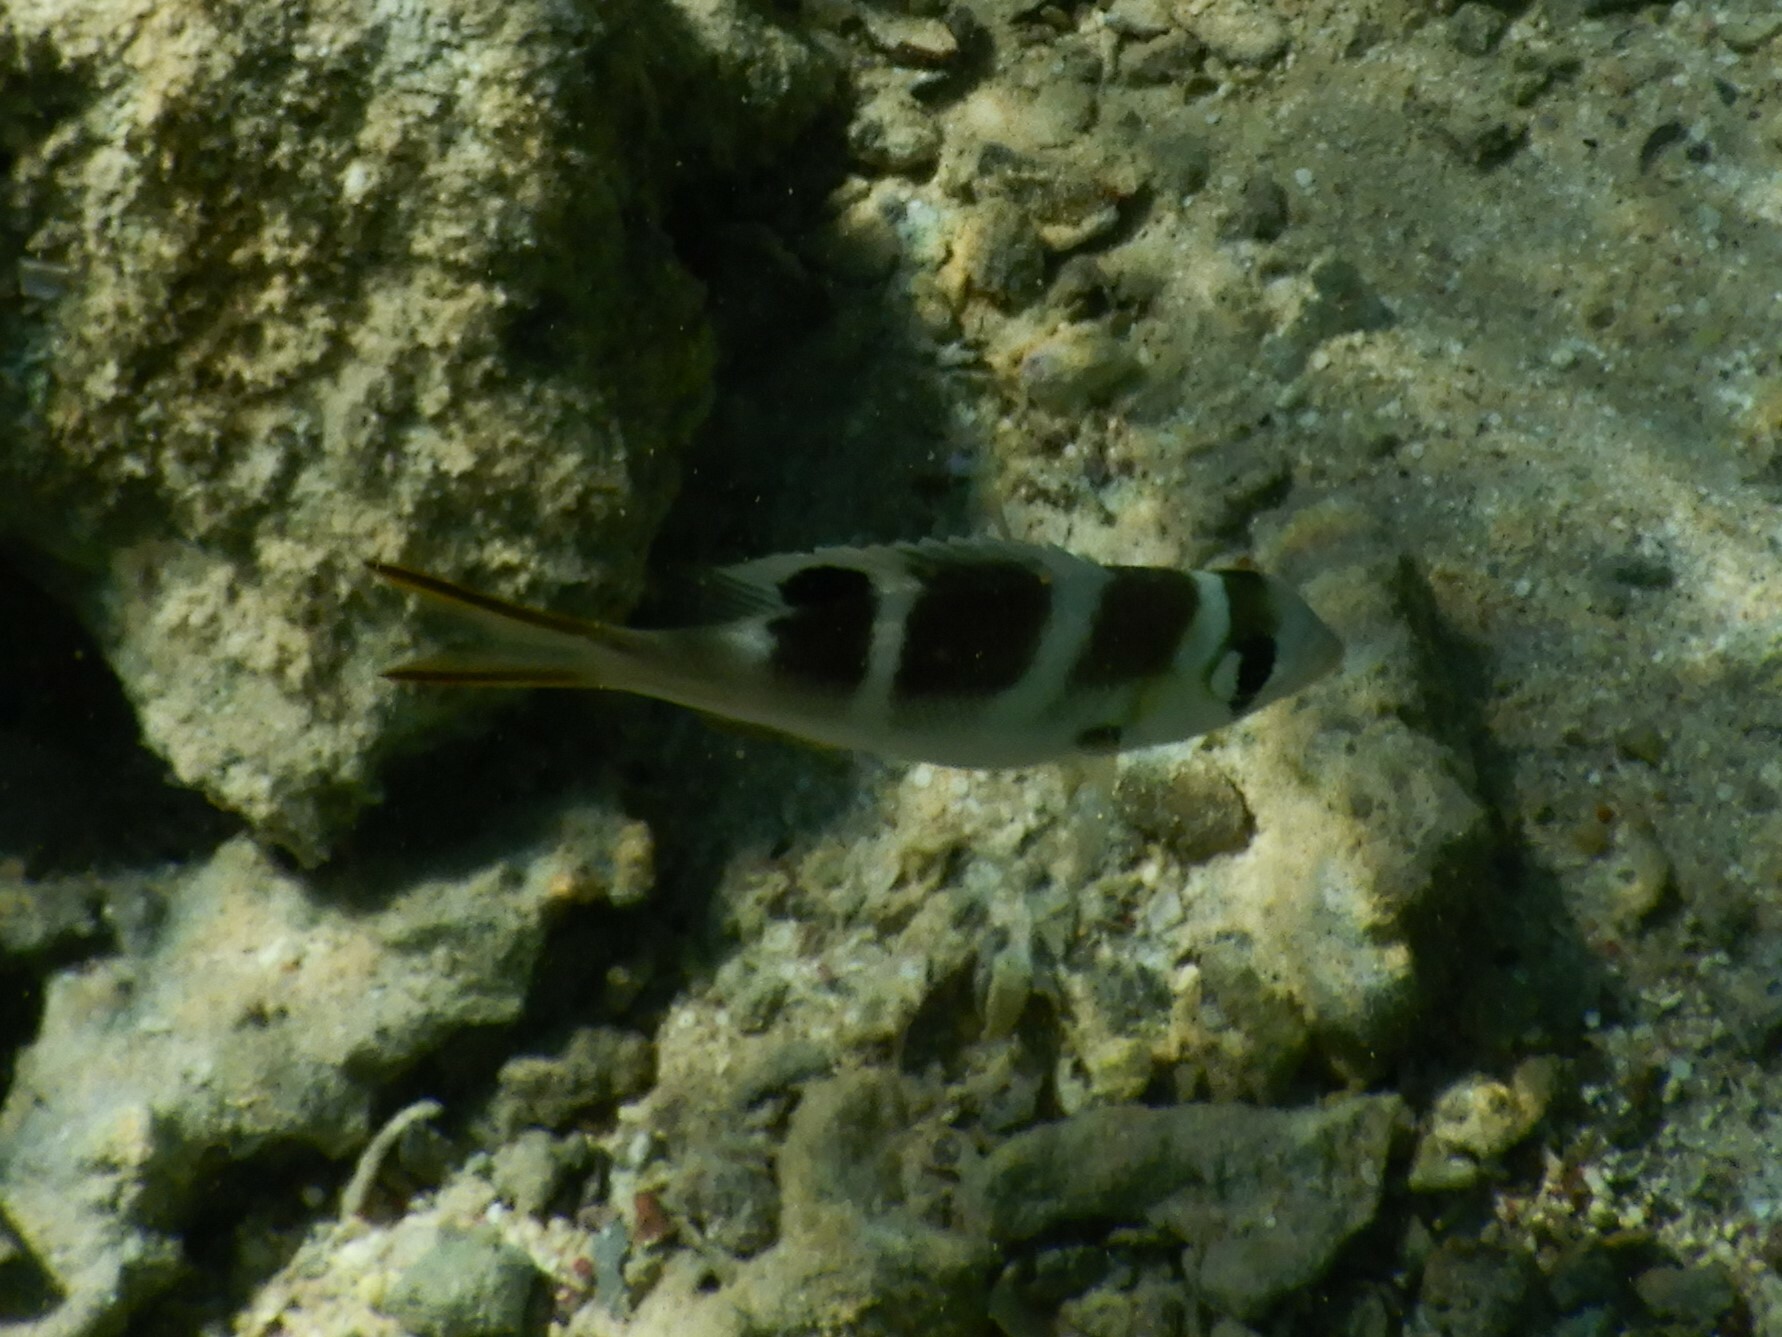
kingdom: Animalia
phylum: Chordata
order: Perciformes
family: Lethrinidae
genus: Monotaxis
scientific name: Monotaxis grandoculis
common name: Bigeye emperor
